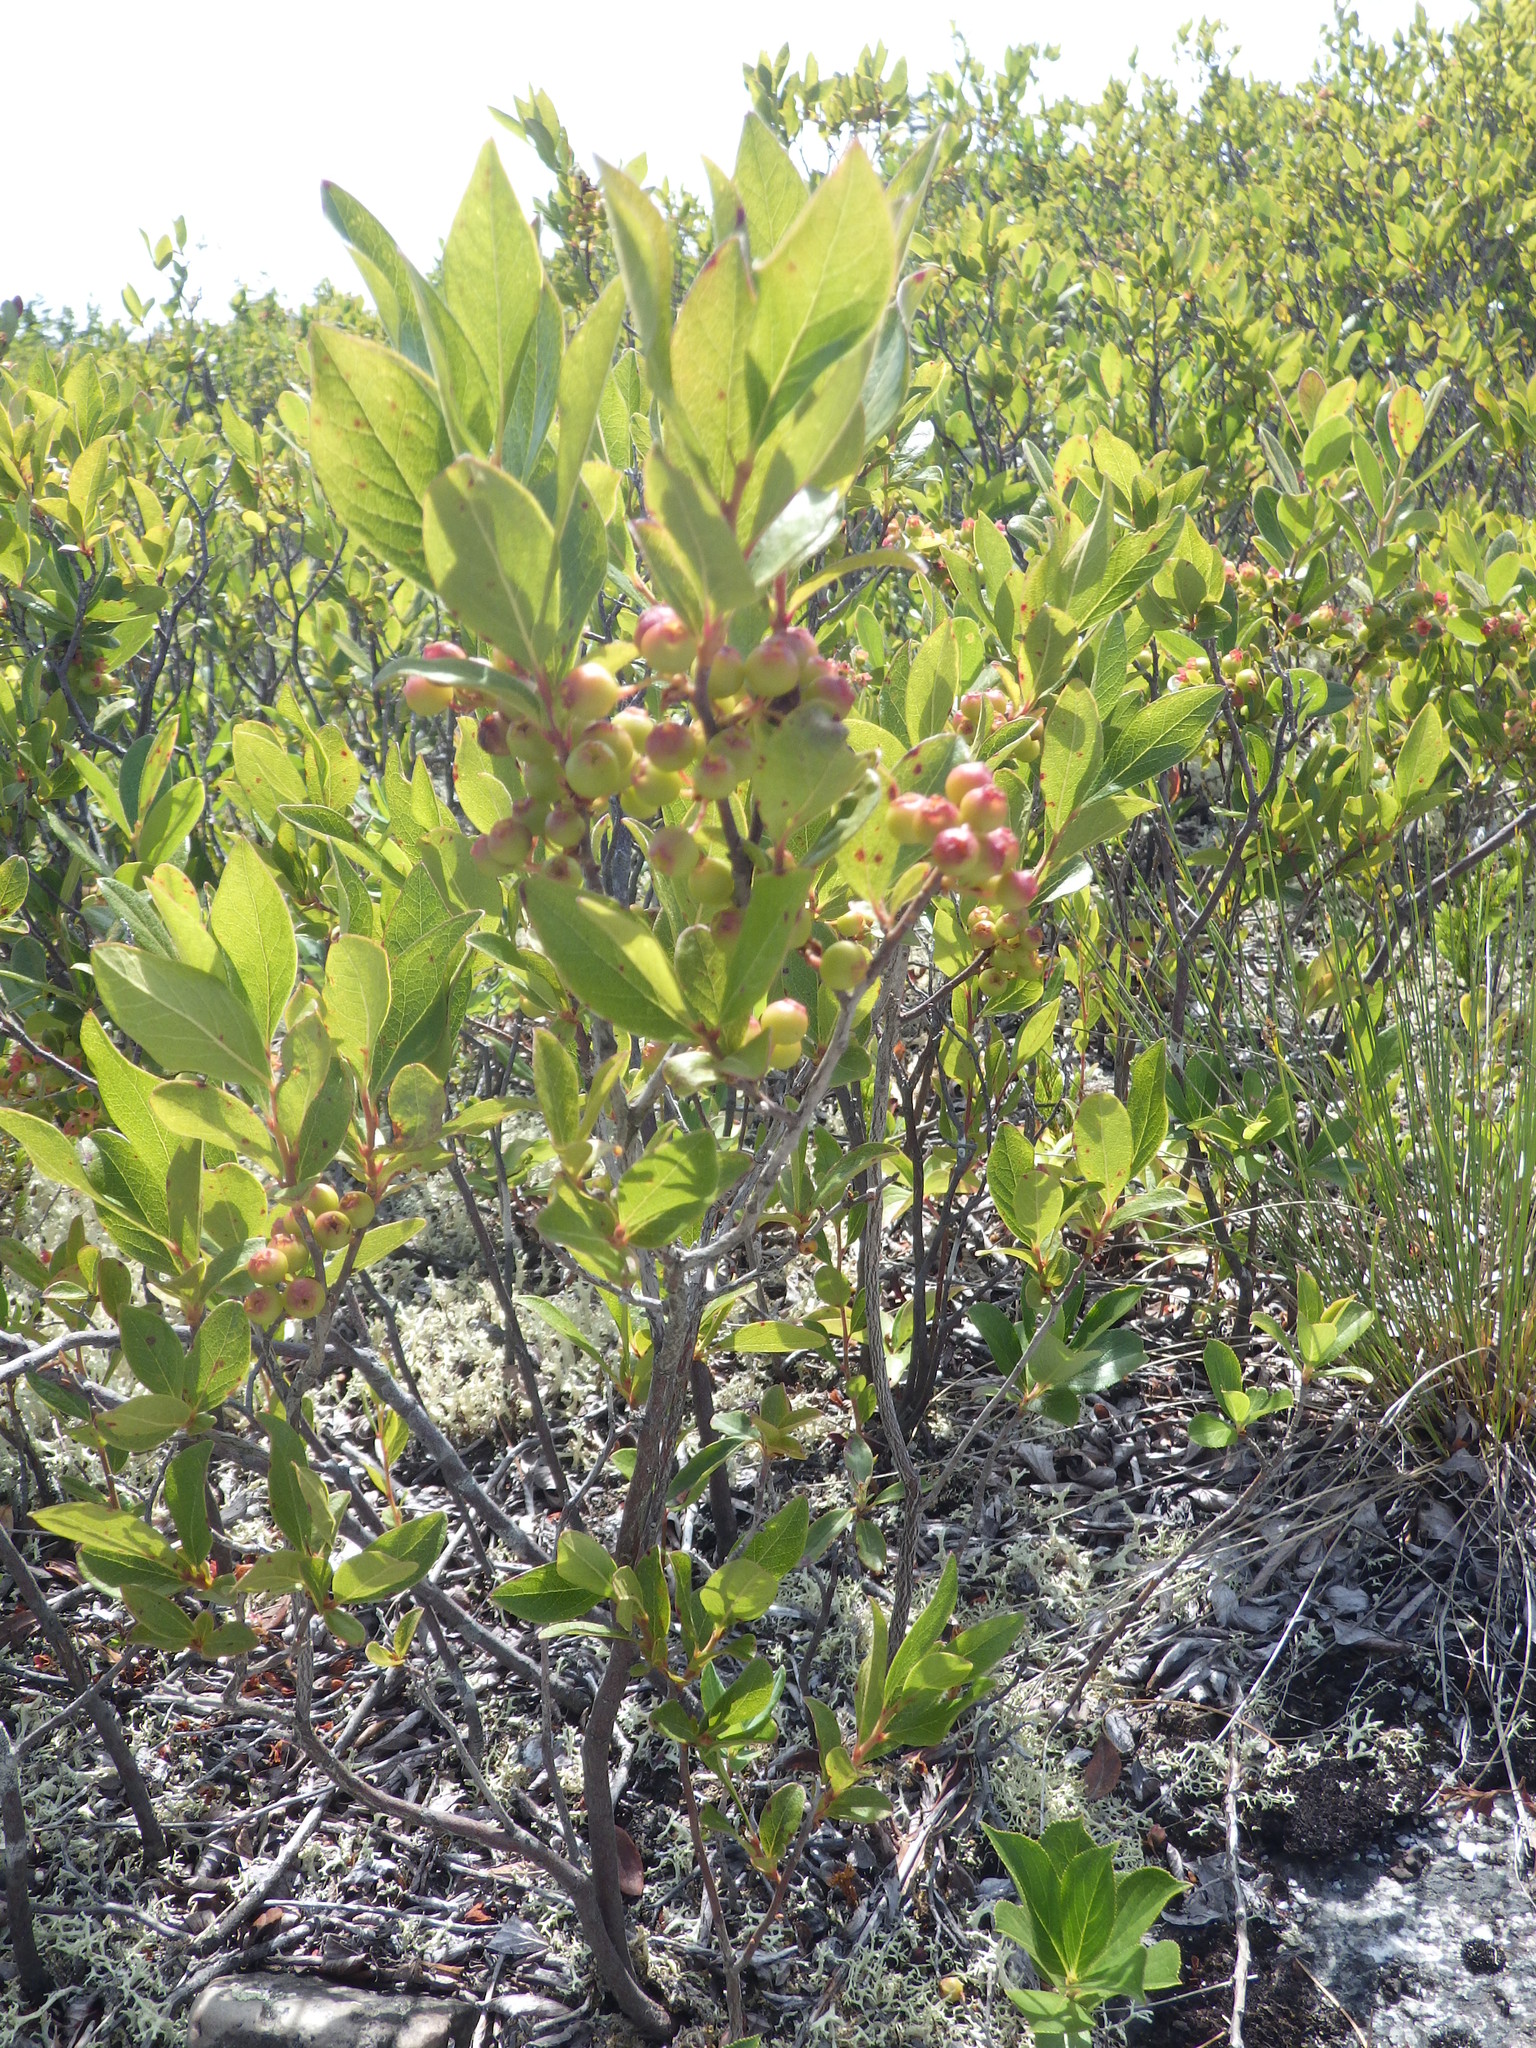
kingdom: Plantae
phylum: Tracheophyta
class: Magnoliopsida
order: Ericales
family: Ericaceae
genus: Gaylussacia
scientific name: Gaylussacia baccata
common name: Black huckleberry
